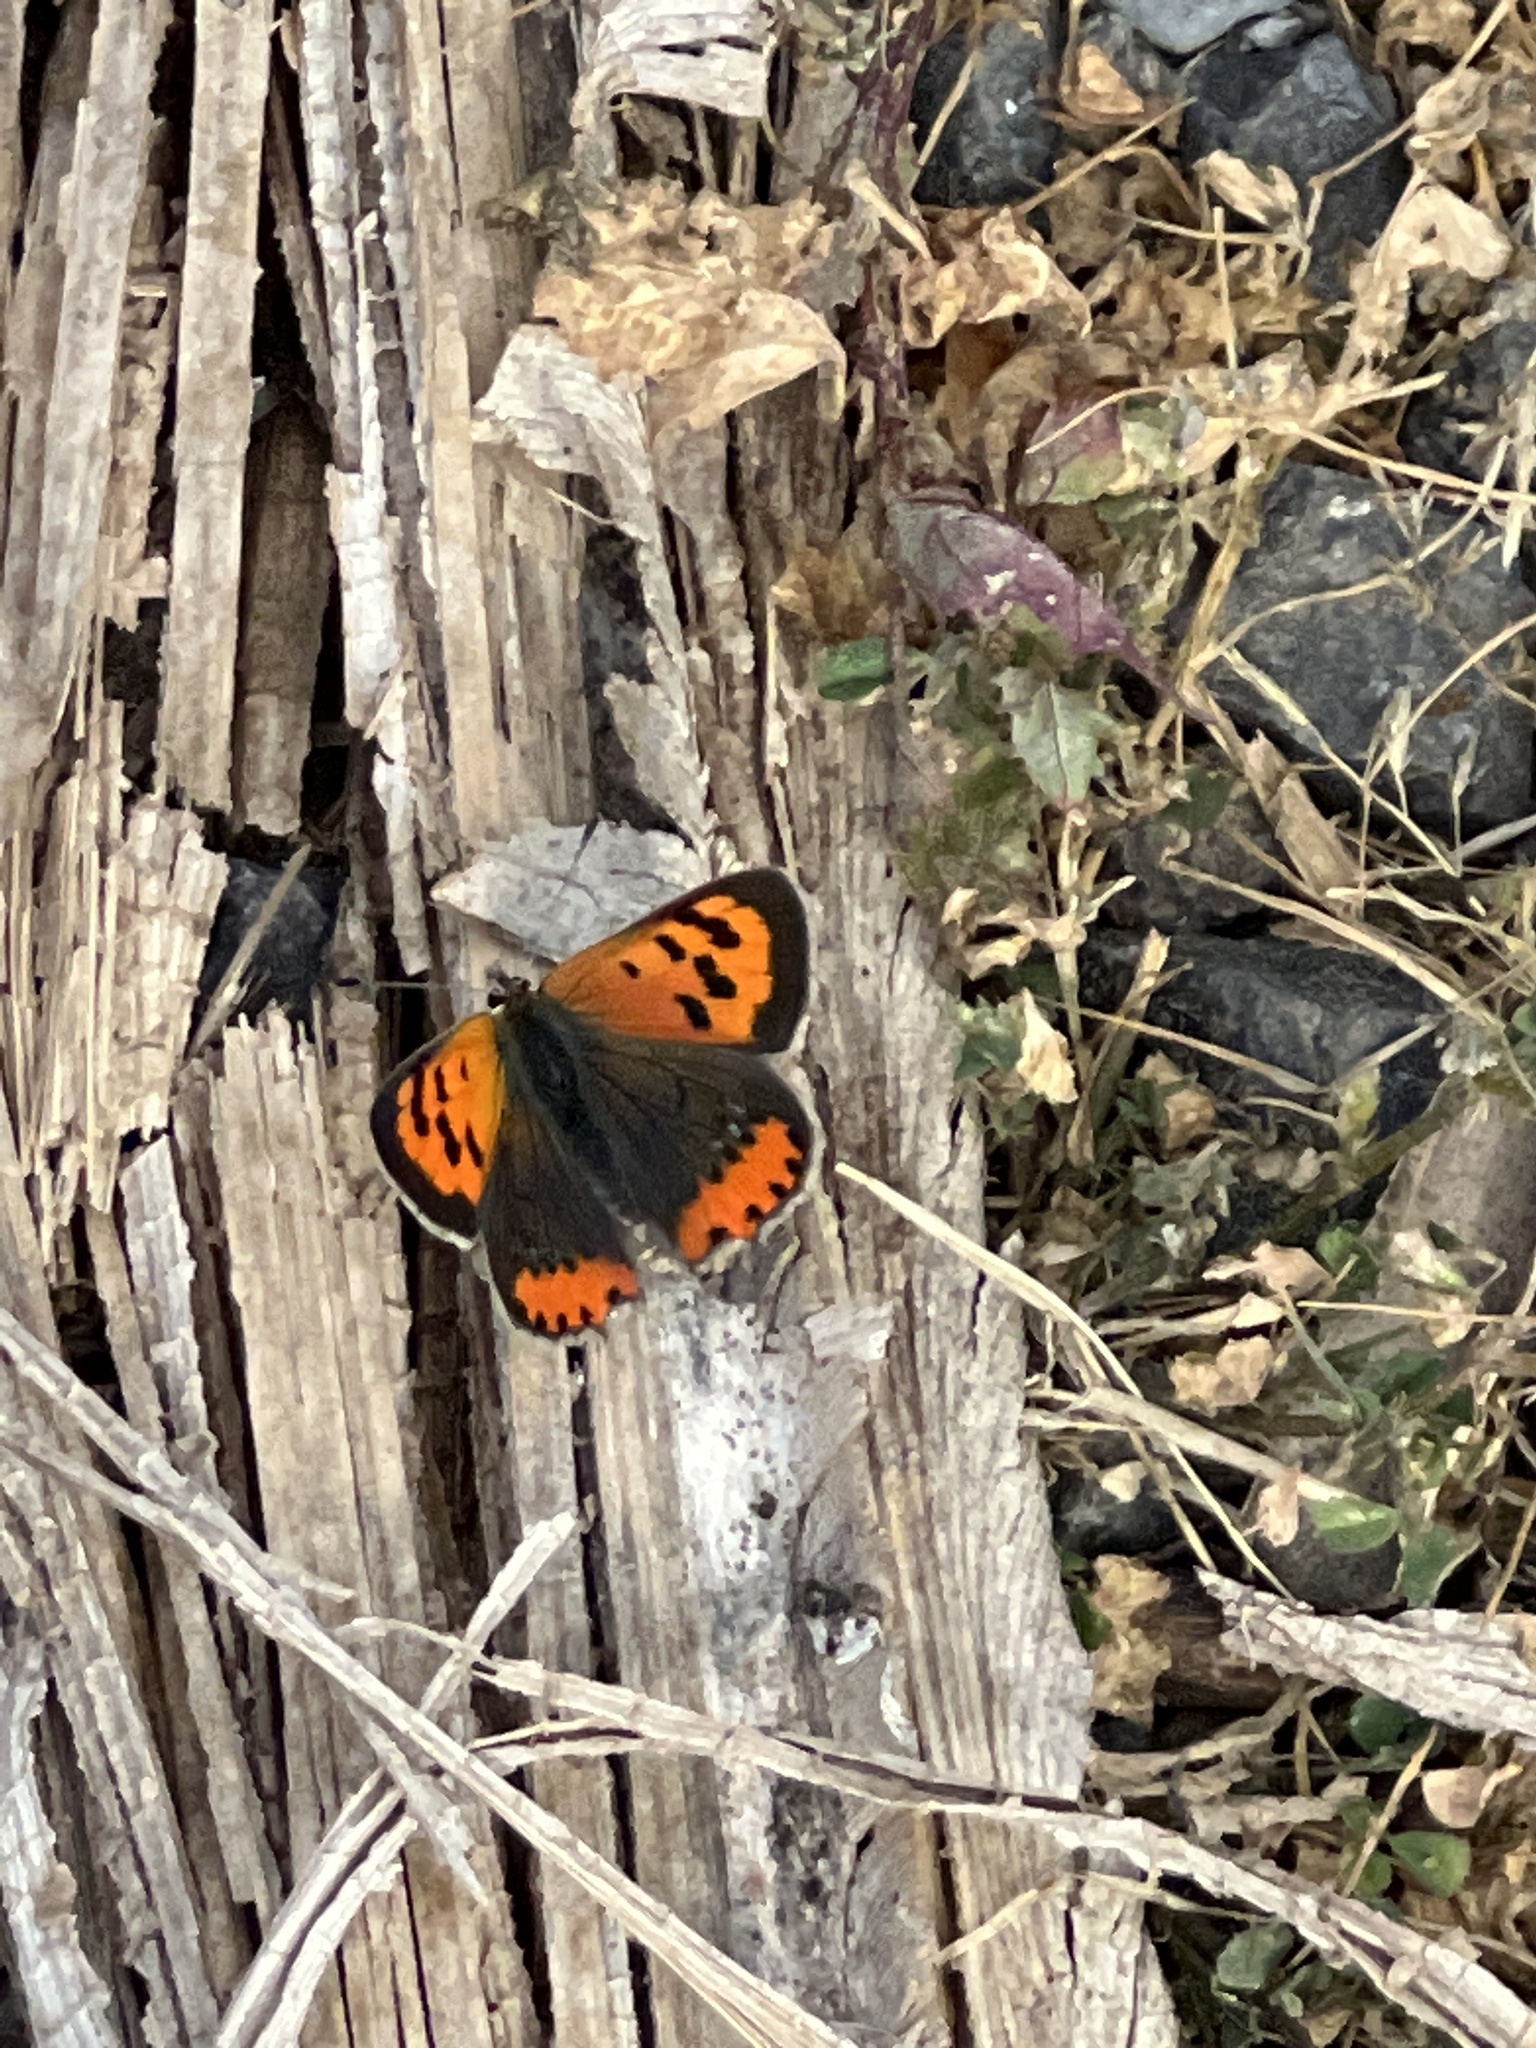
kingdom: Animalia
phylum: Arthropoda
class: Insecta
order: Lepidoptera
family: Lycaenidae
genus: Lycaena
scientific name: Lycaena phlaeas
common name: Small copper
